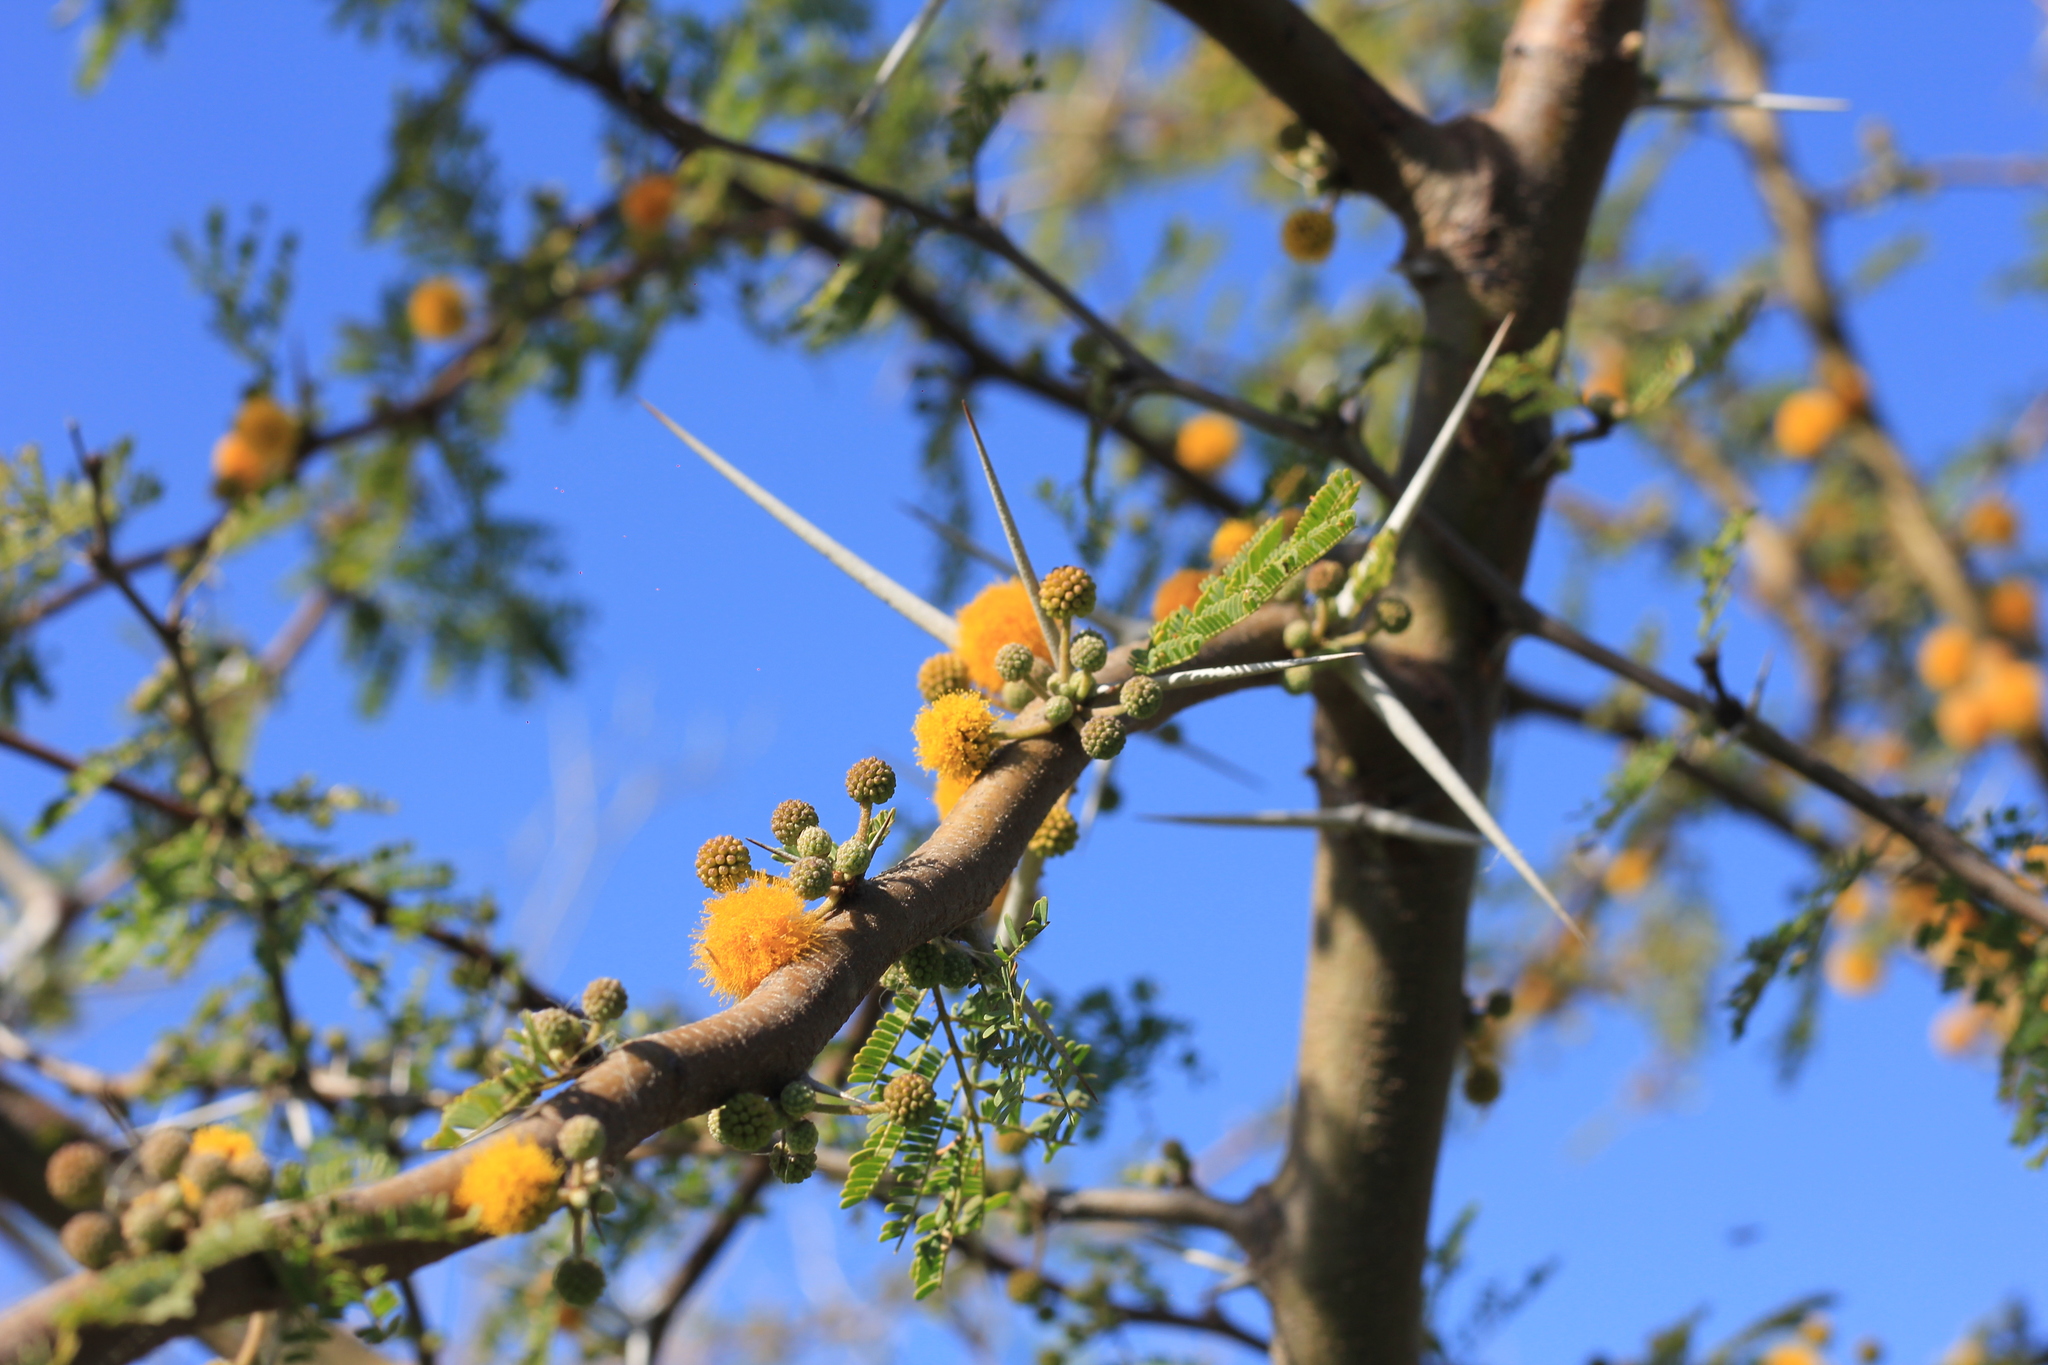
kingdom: Plantae
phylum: Tracheophyta
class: Magnoliopsida
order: Fabales
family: Fabaceae
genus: Vachellia
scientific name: Vachellia caven
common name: Roman cassie
